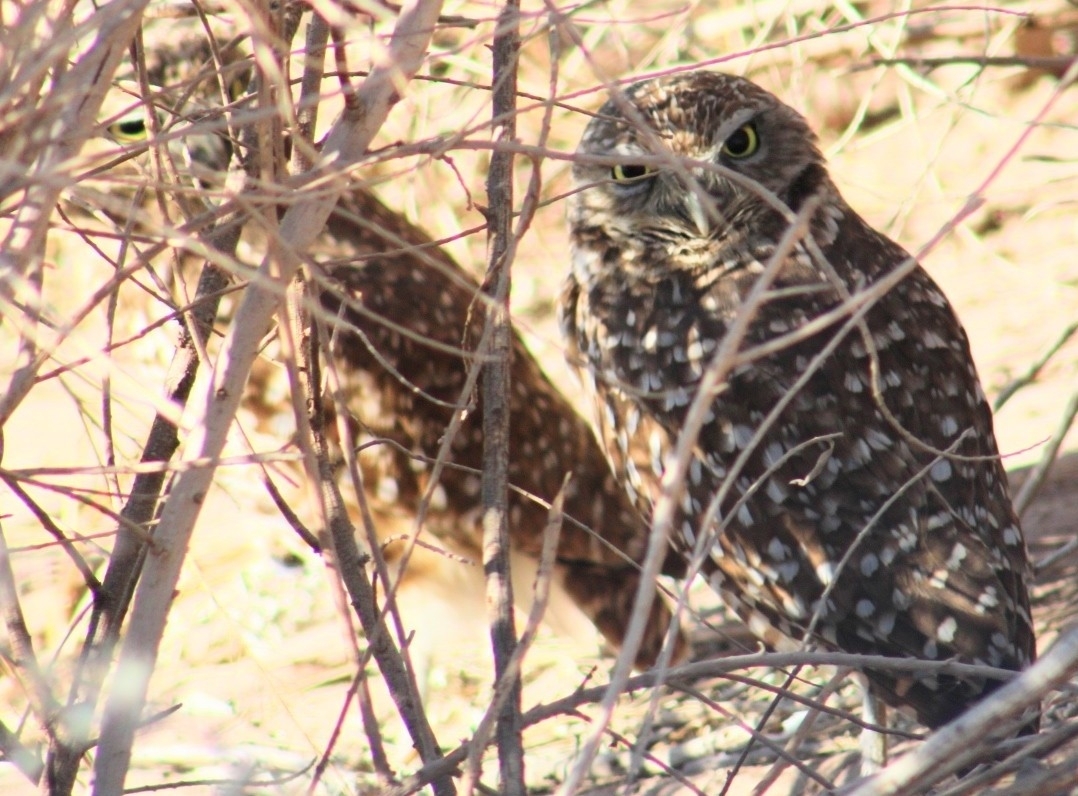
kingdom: Animalia
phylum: Chordata
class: Aves
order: Strigiformes
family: Strigidae
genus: Athene
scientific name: Athene cunicularia
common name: Burrowing owl
